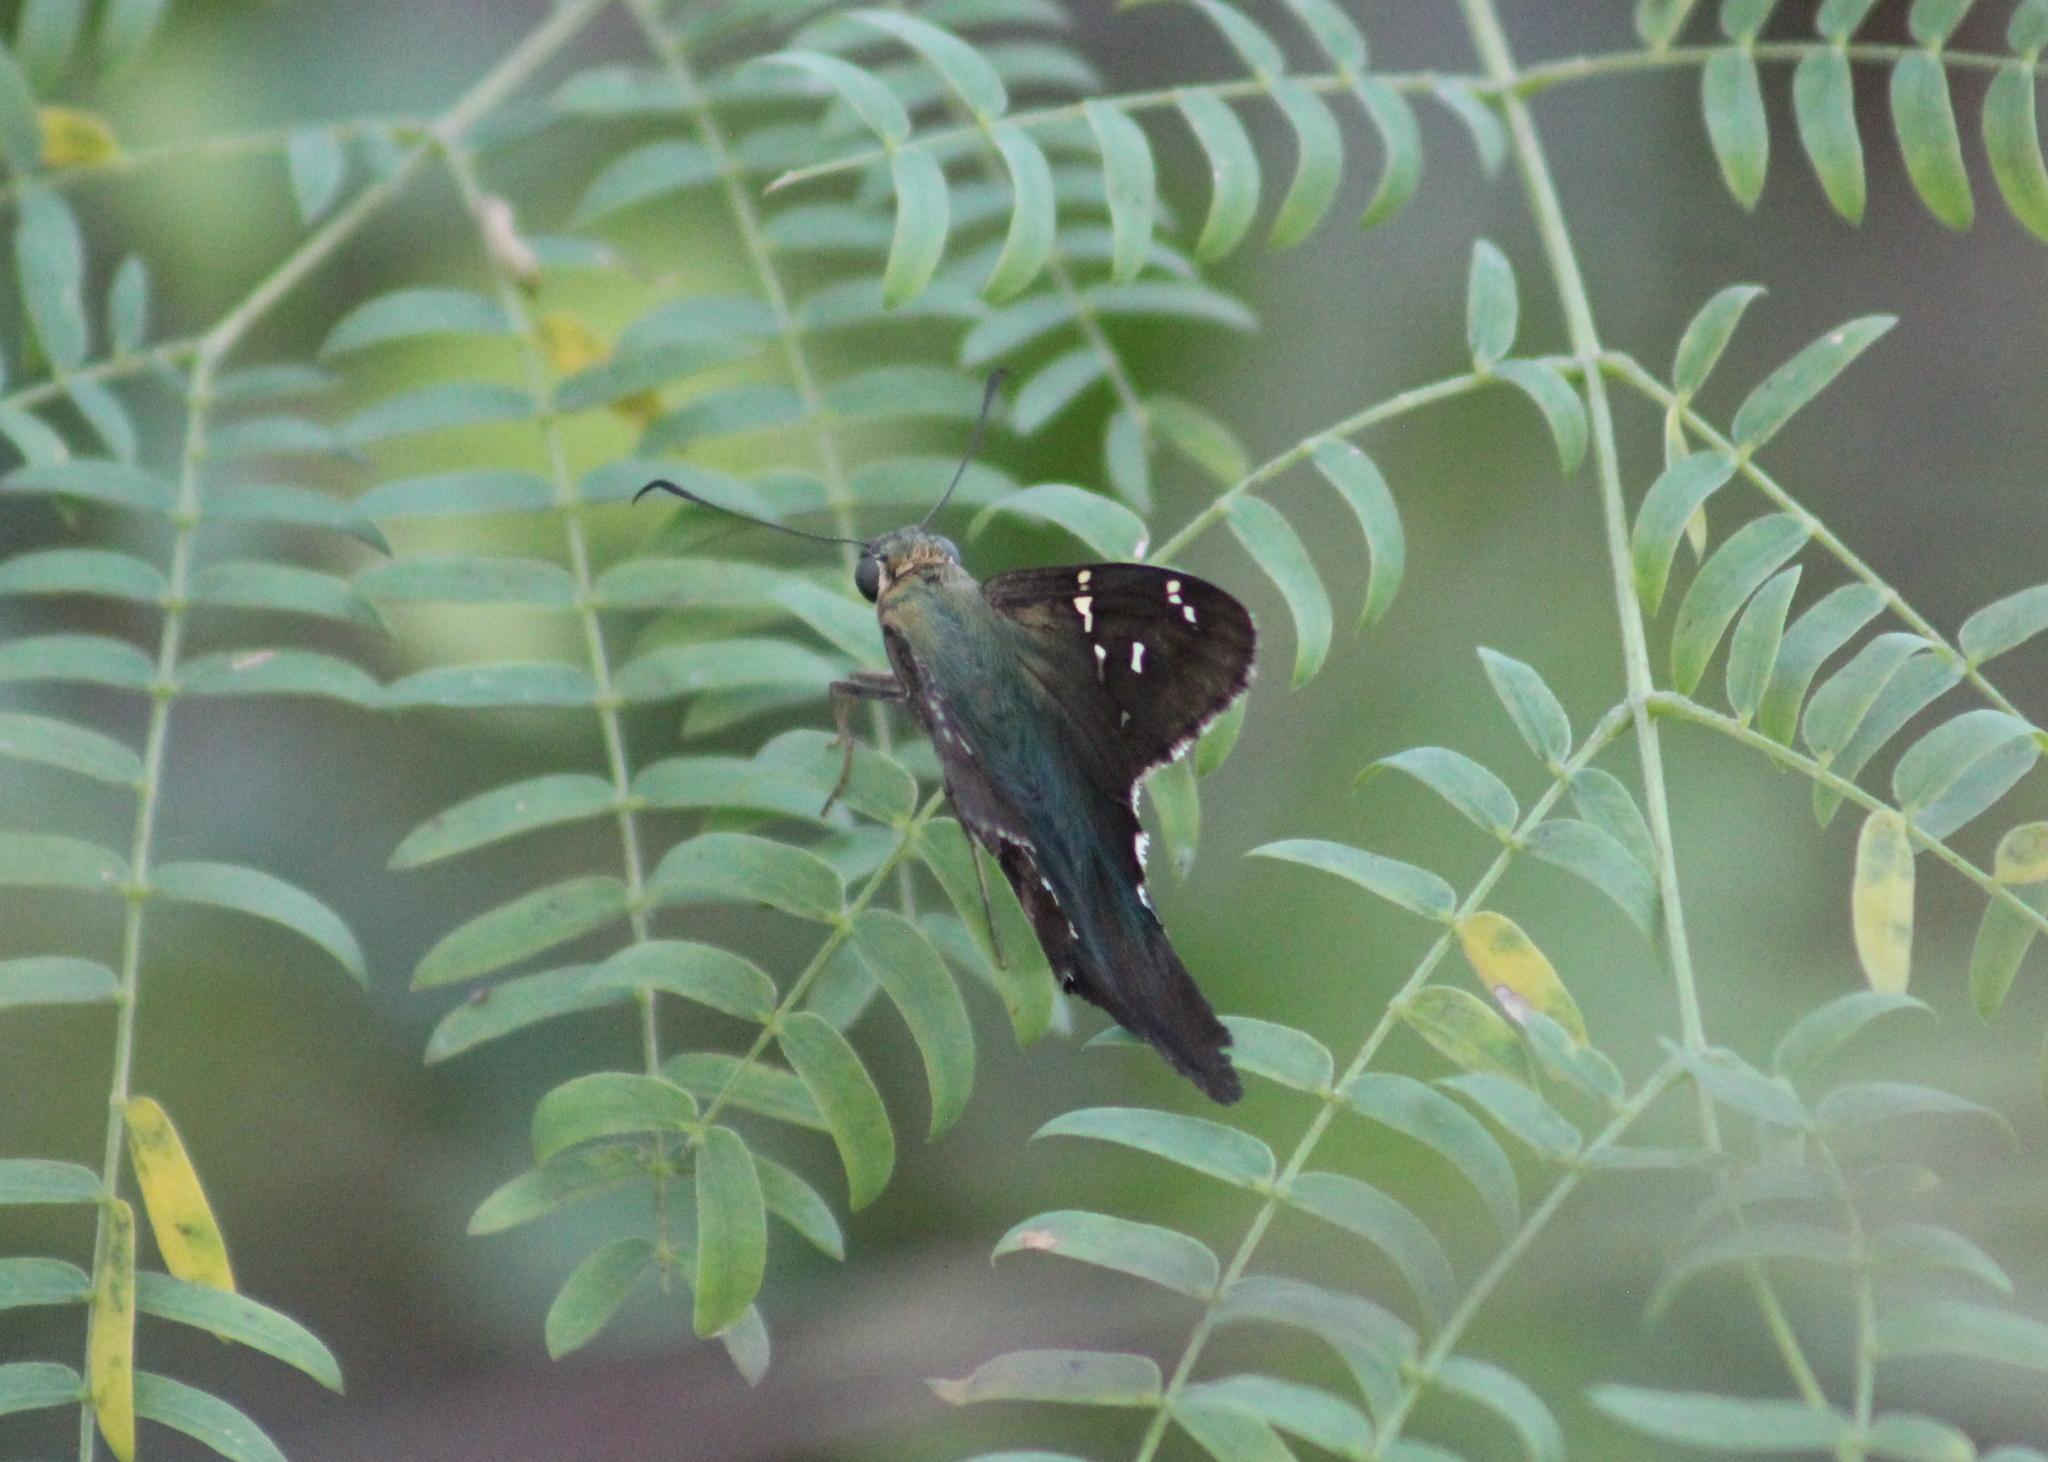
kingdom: Animalia
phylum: Arthropoda
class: Insecta
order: Lepidoptera
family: Hesperiidae
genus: Urbanus
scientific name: Urbanus proteus
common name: Long-tailed skipper
